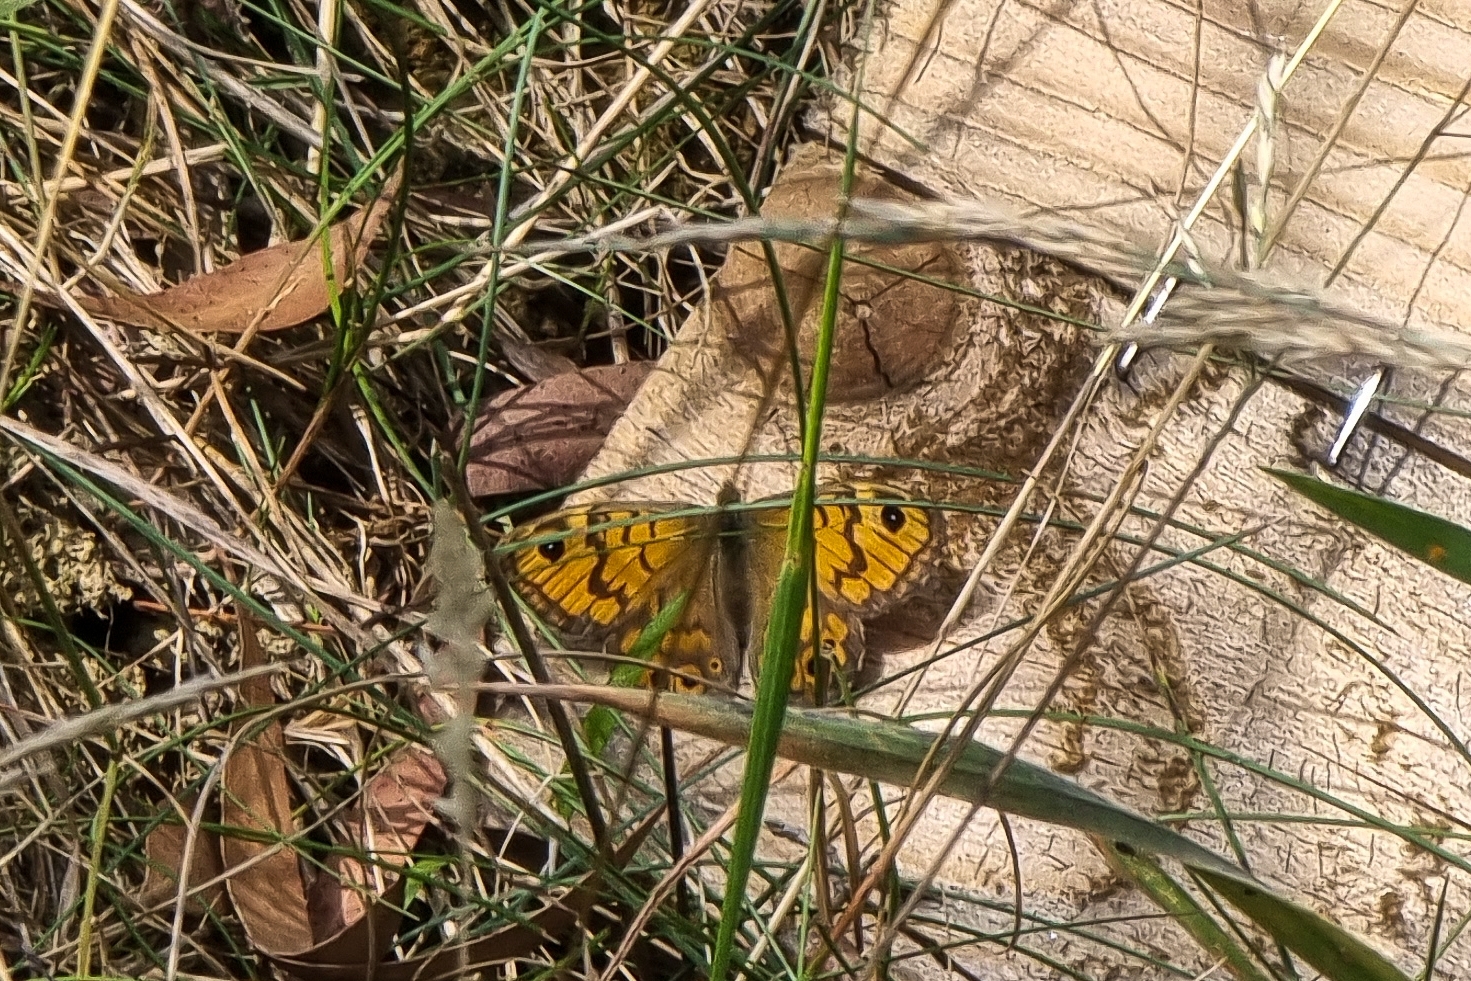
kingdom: Animalia
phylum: Arthropoda
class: Insecta
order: Lepidoptera
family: Nymphalidae
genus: Pararge
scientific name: Pararge Lasiommata megera
